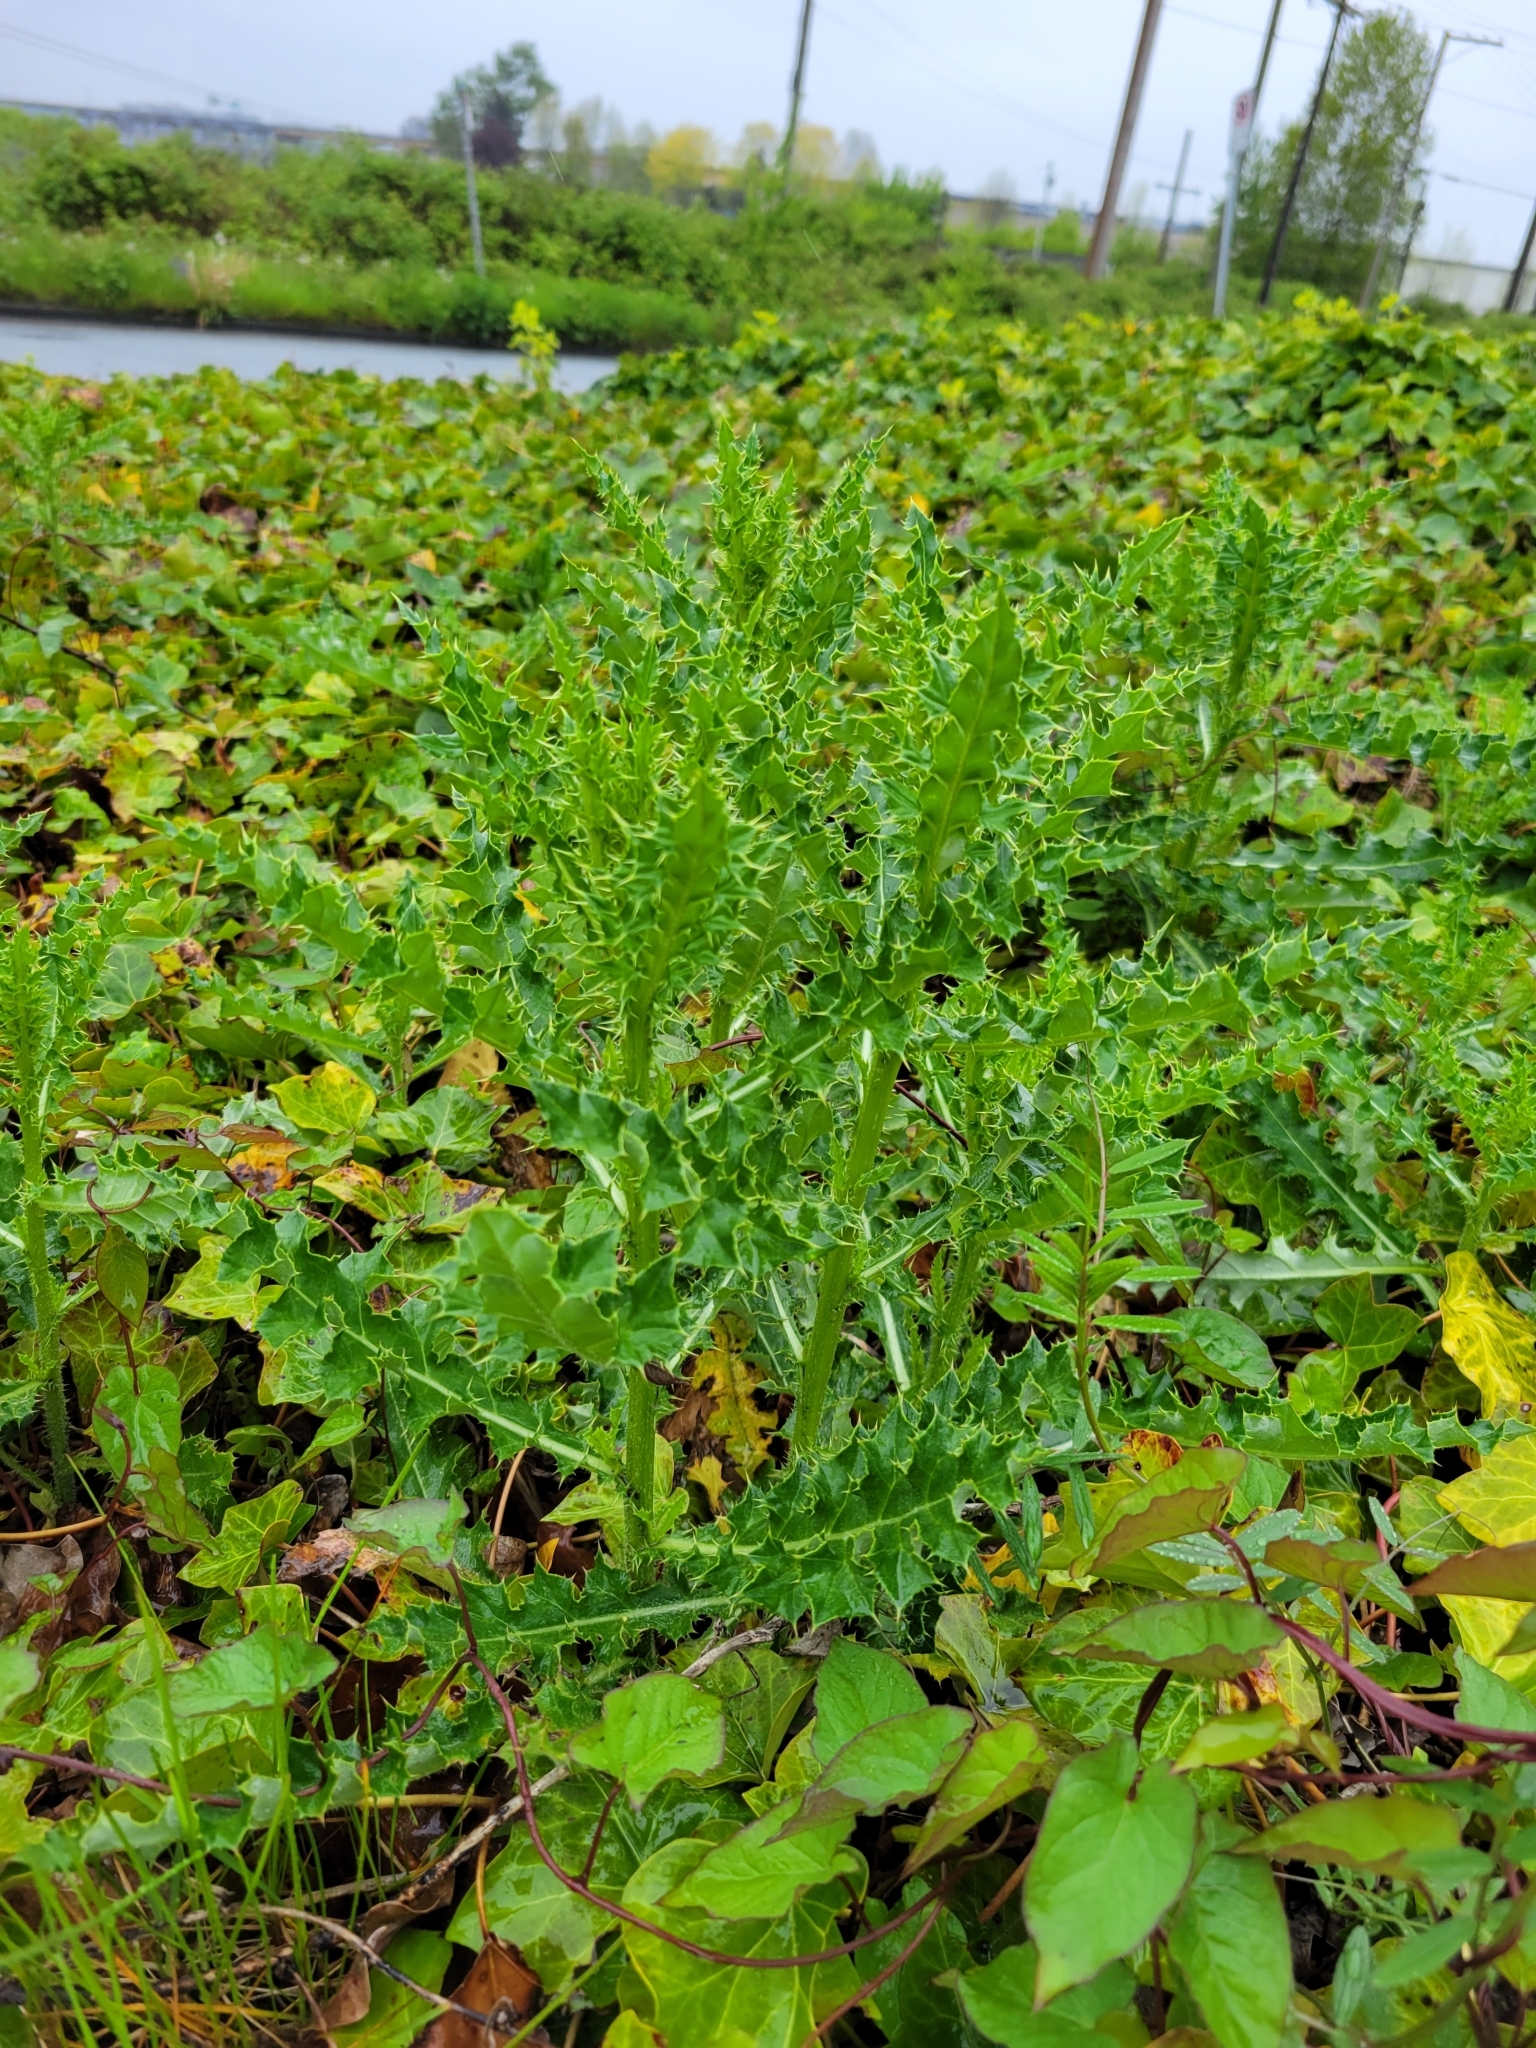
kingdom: Plantae
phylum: Tracheophyta
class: Magnoliopsida
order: Asterales
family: Asteraceae
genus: Cirsium
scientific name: Cirsium arvense
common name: Creeping thistle
